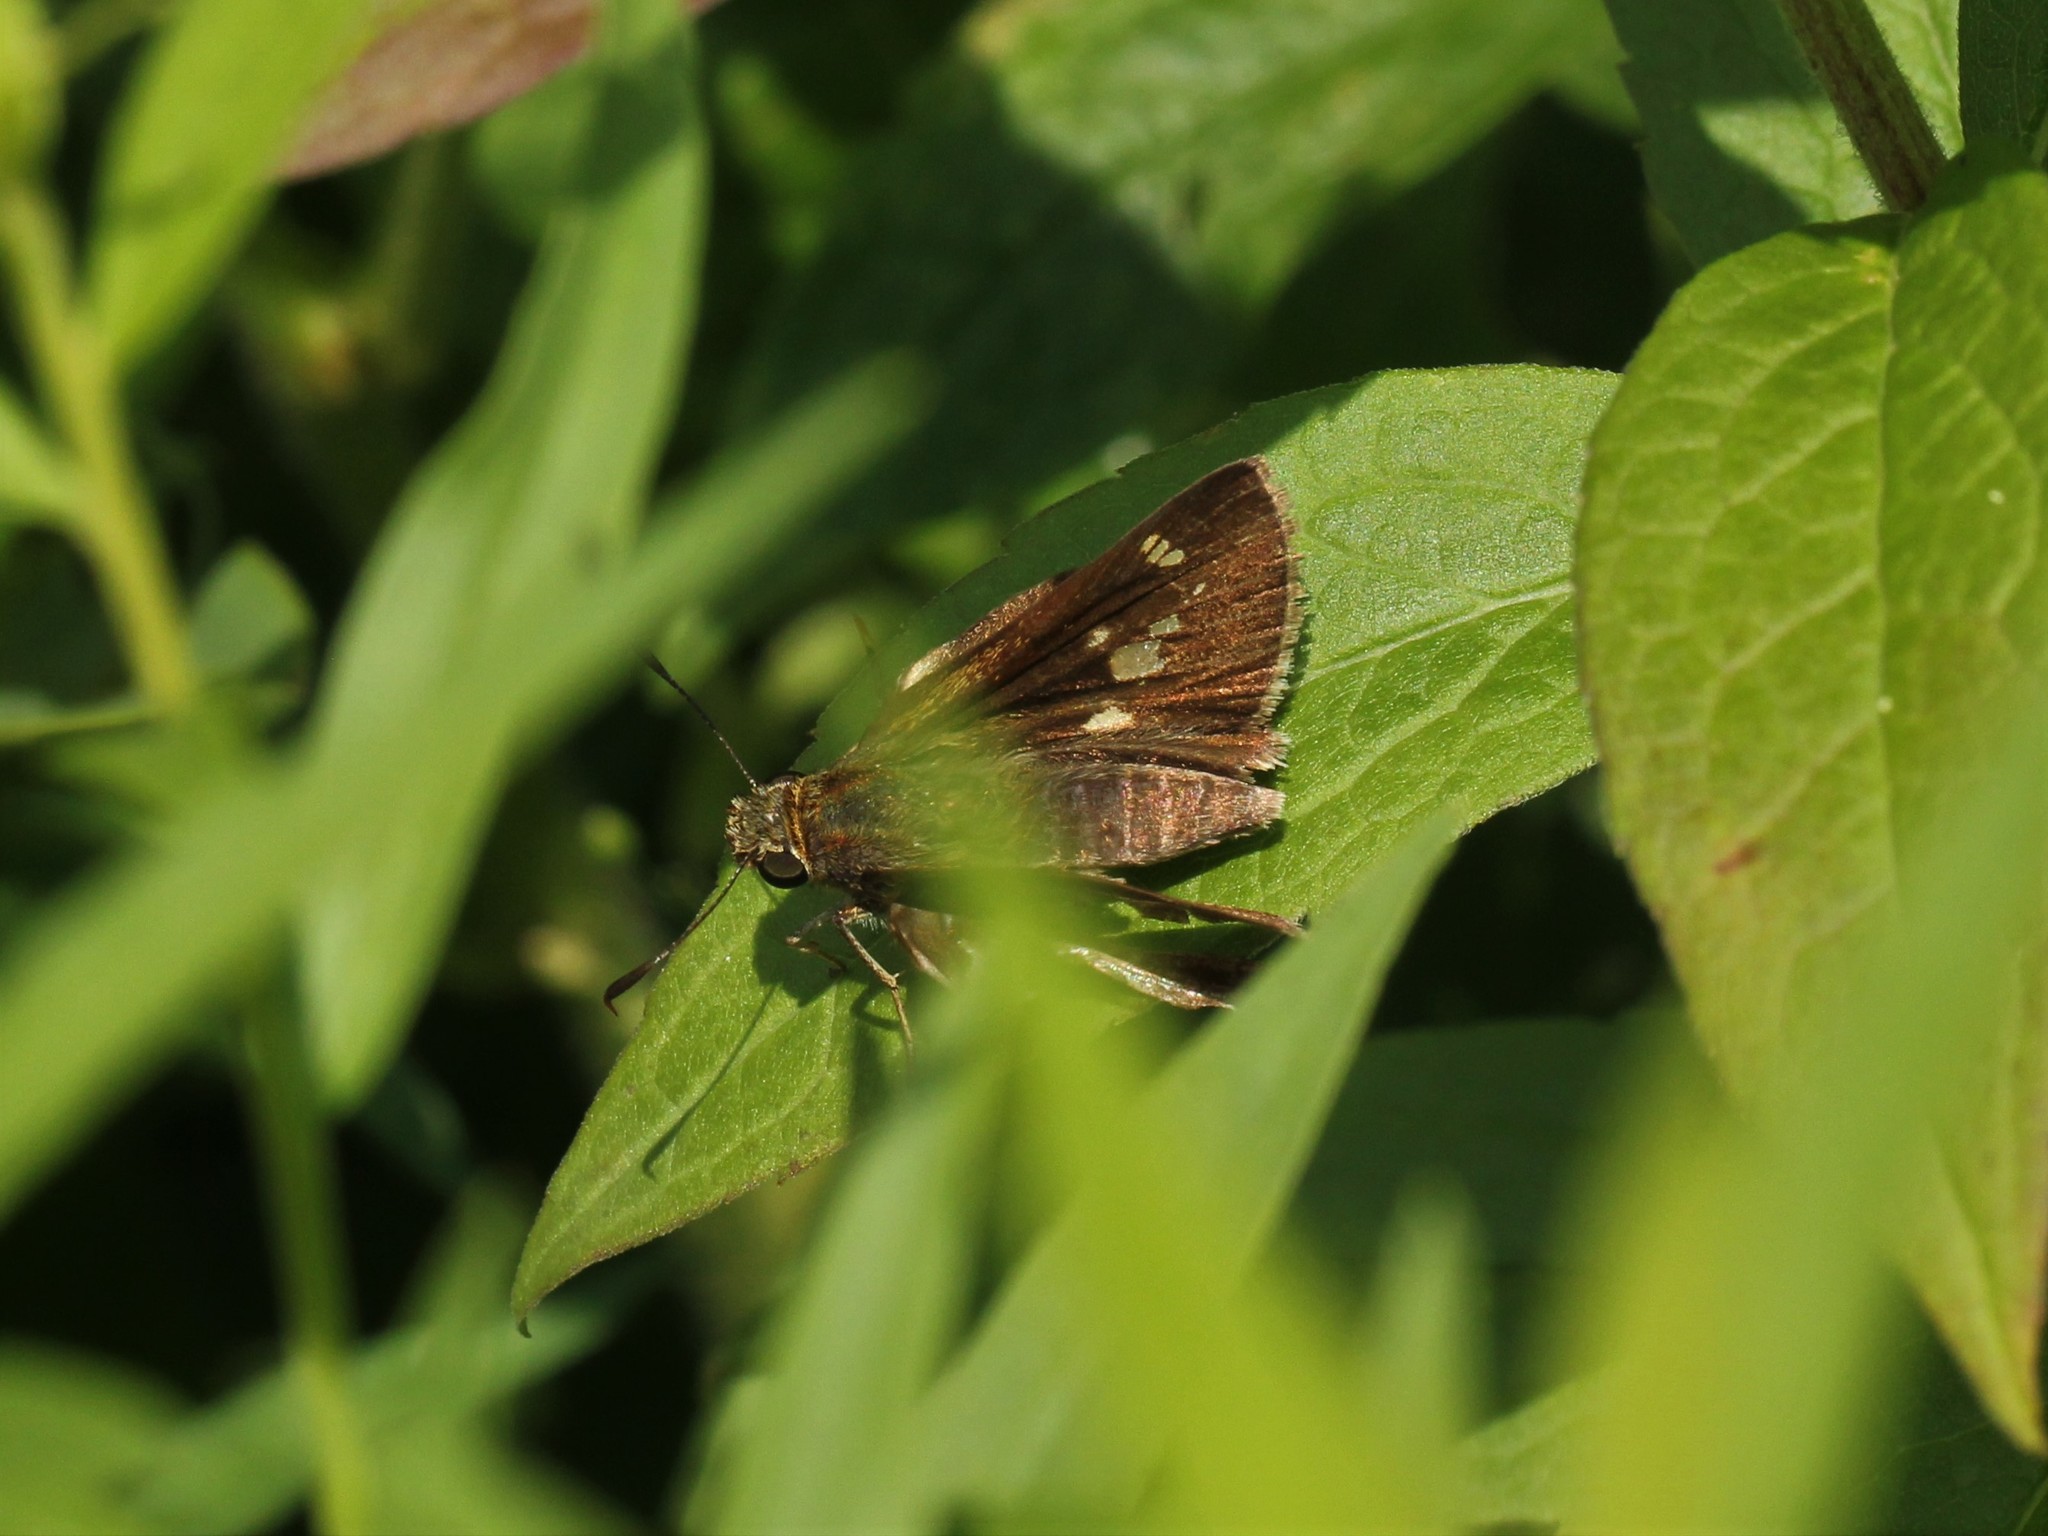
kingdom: Animalia
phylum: Arthropoda
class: Insecta
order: Lepidoptera
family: Hesperiidae
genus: Vernia
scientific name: Vernia verna
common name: Little glassywing
